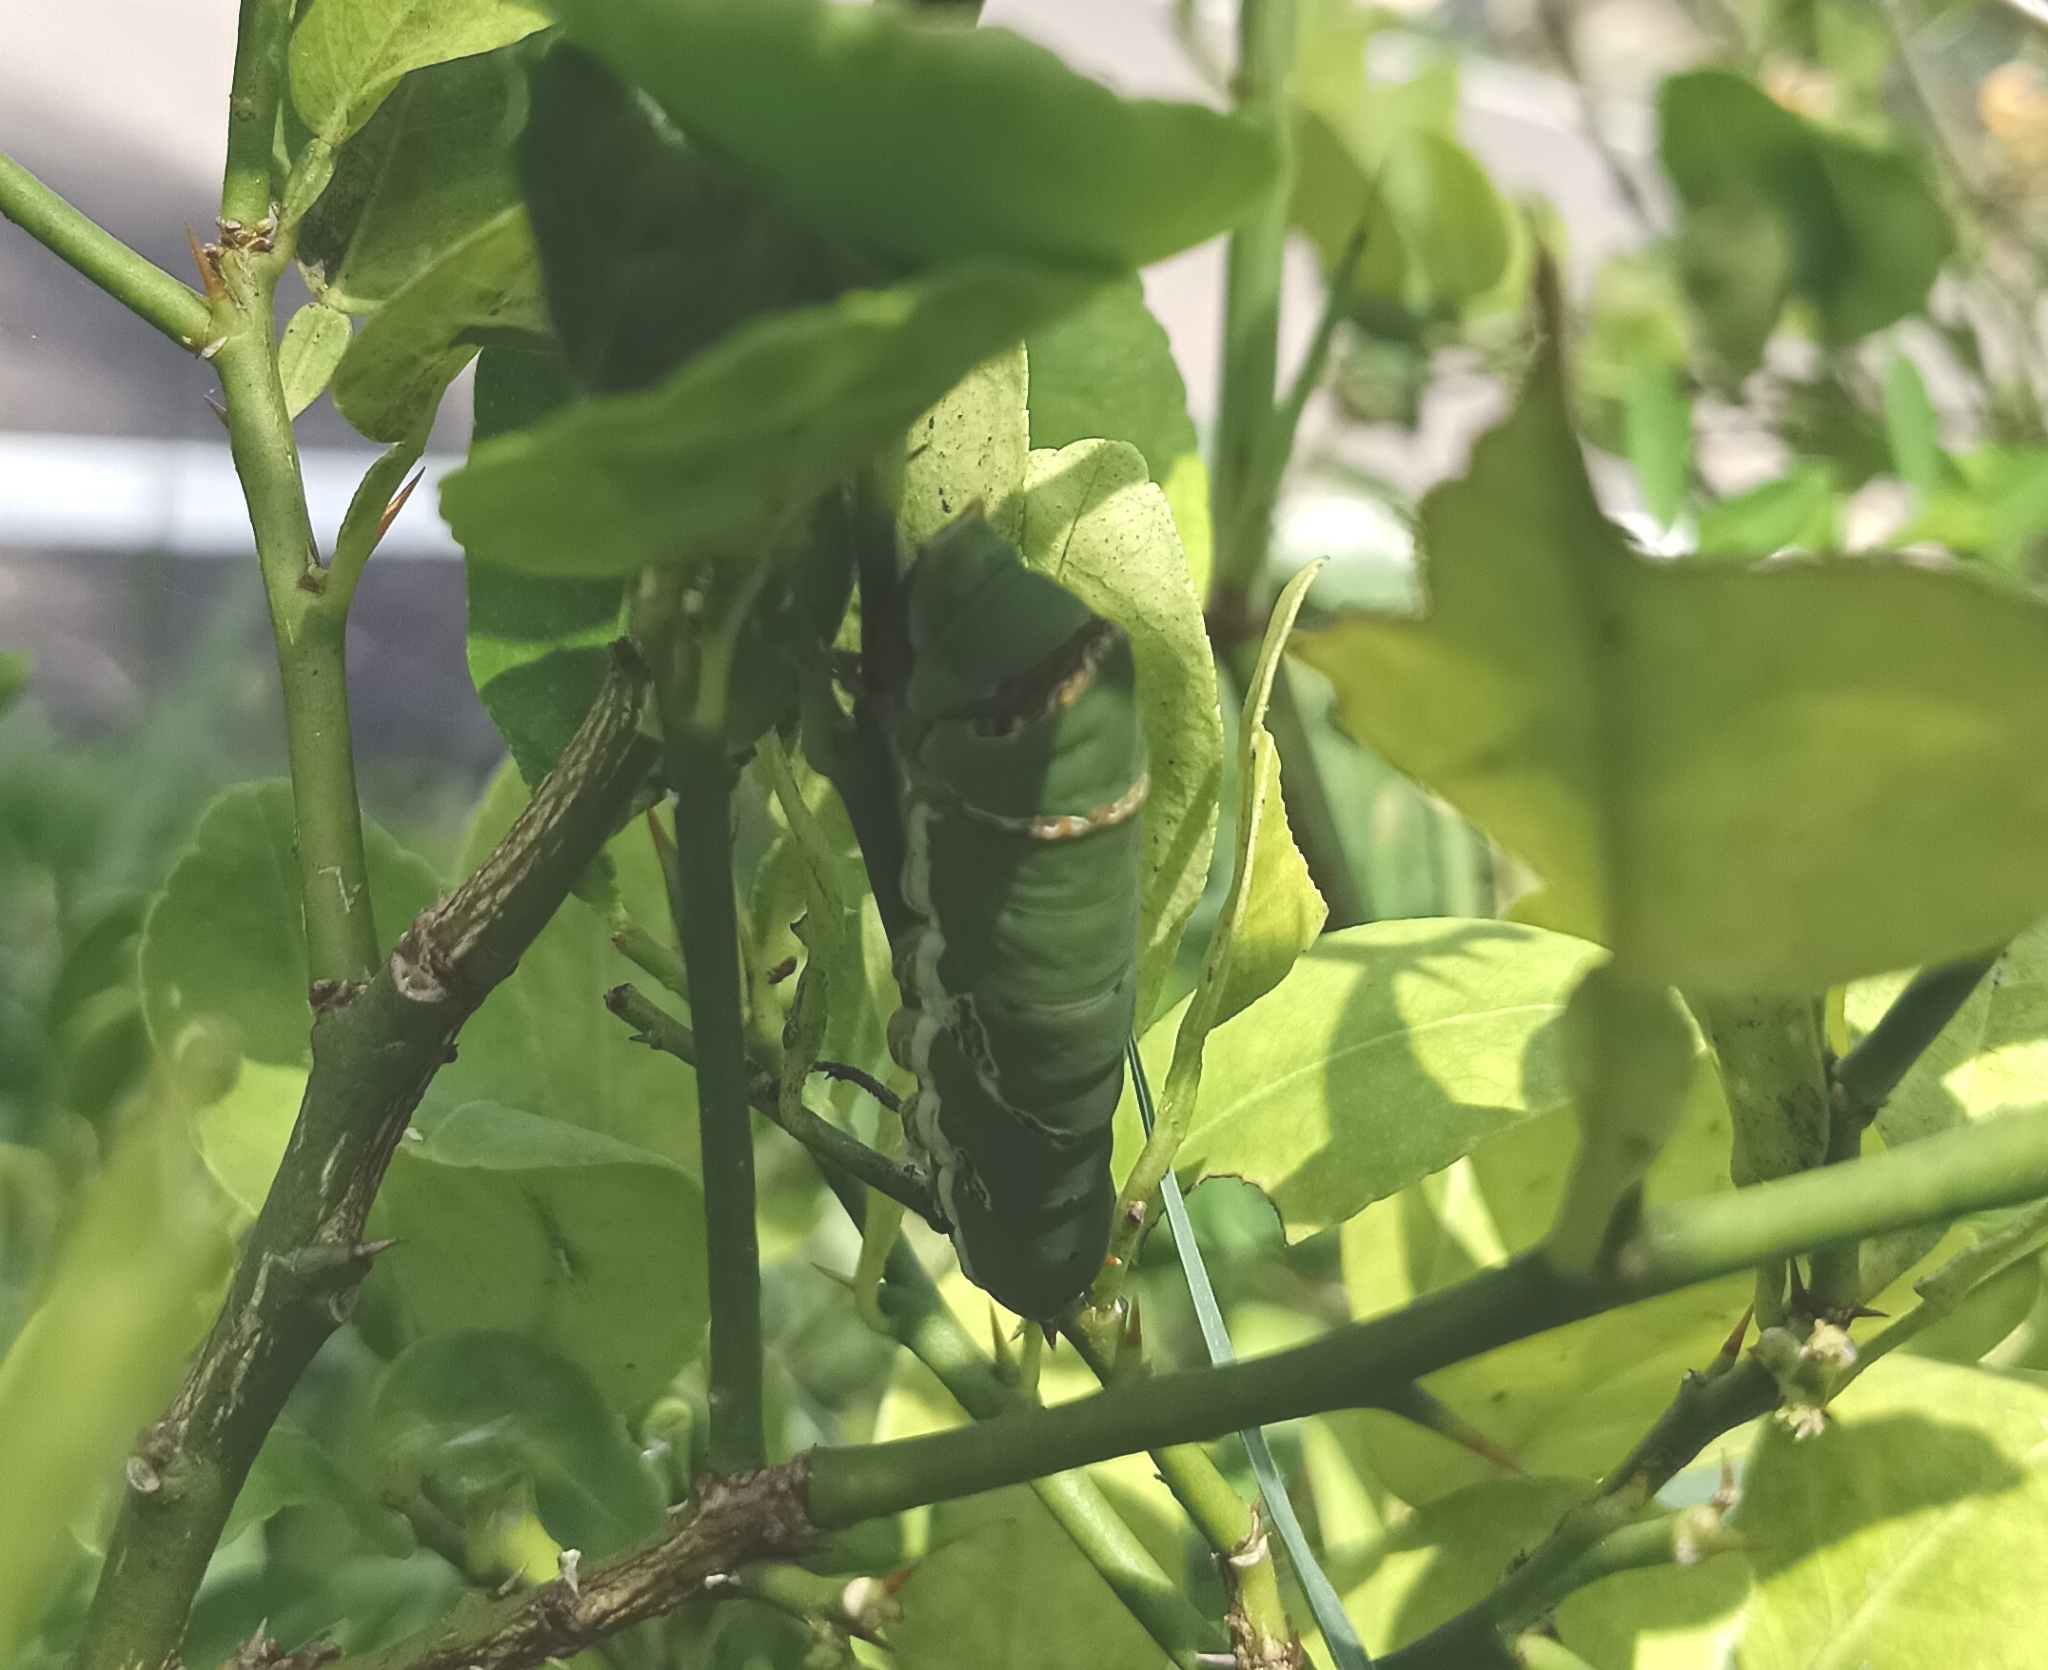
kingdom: Animalia
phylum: Arthropoda
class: Insecta
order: Lepidoptera
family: Papilionidae
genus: Papilio
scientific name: Papilio demoleus
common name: Lime butterfly
